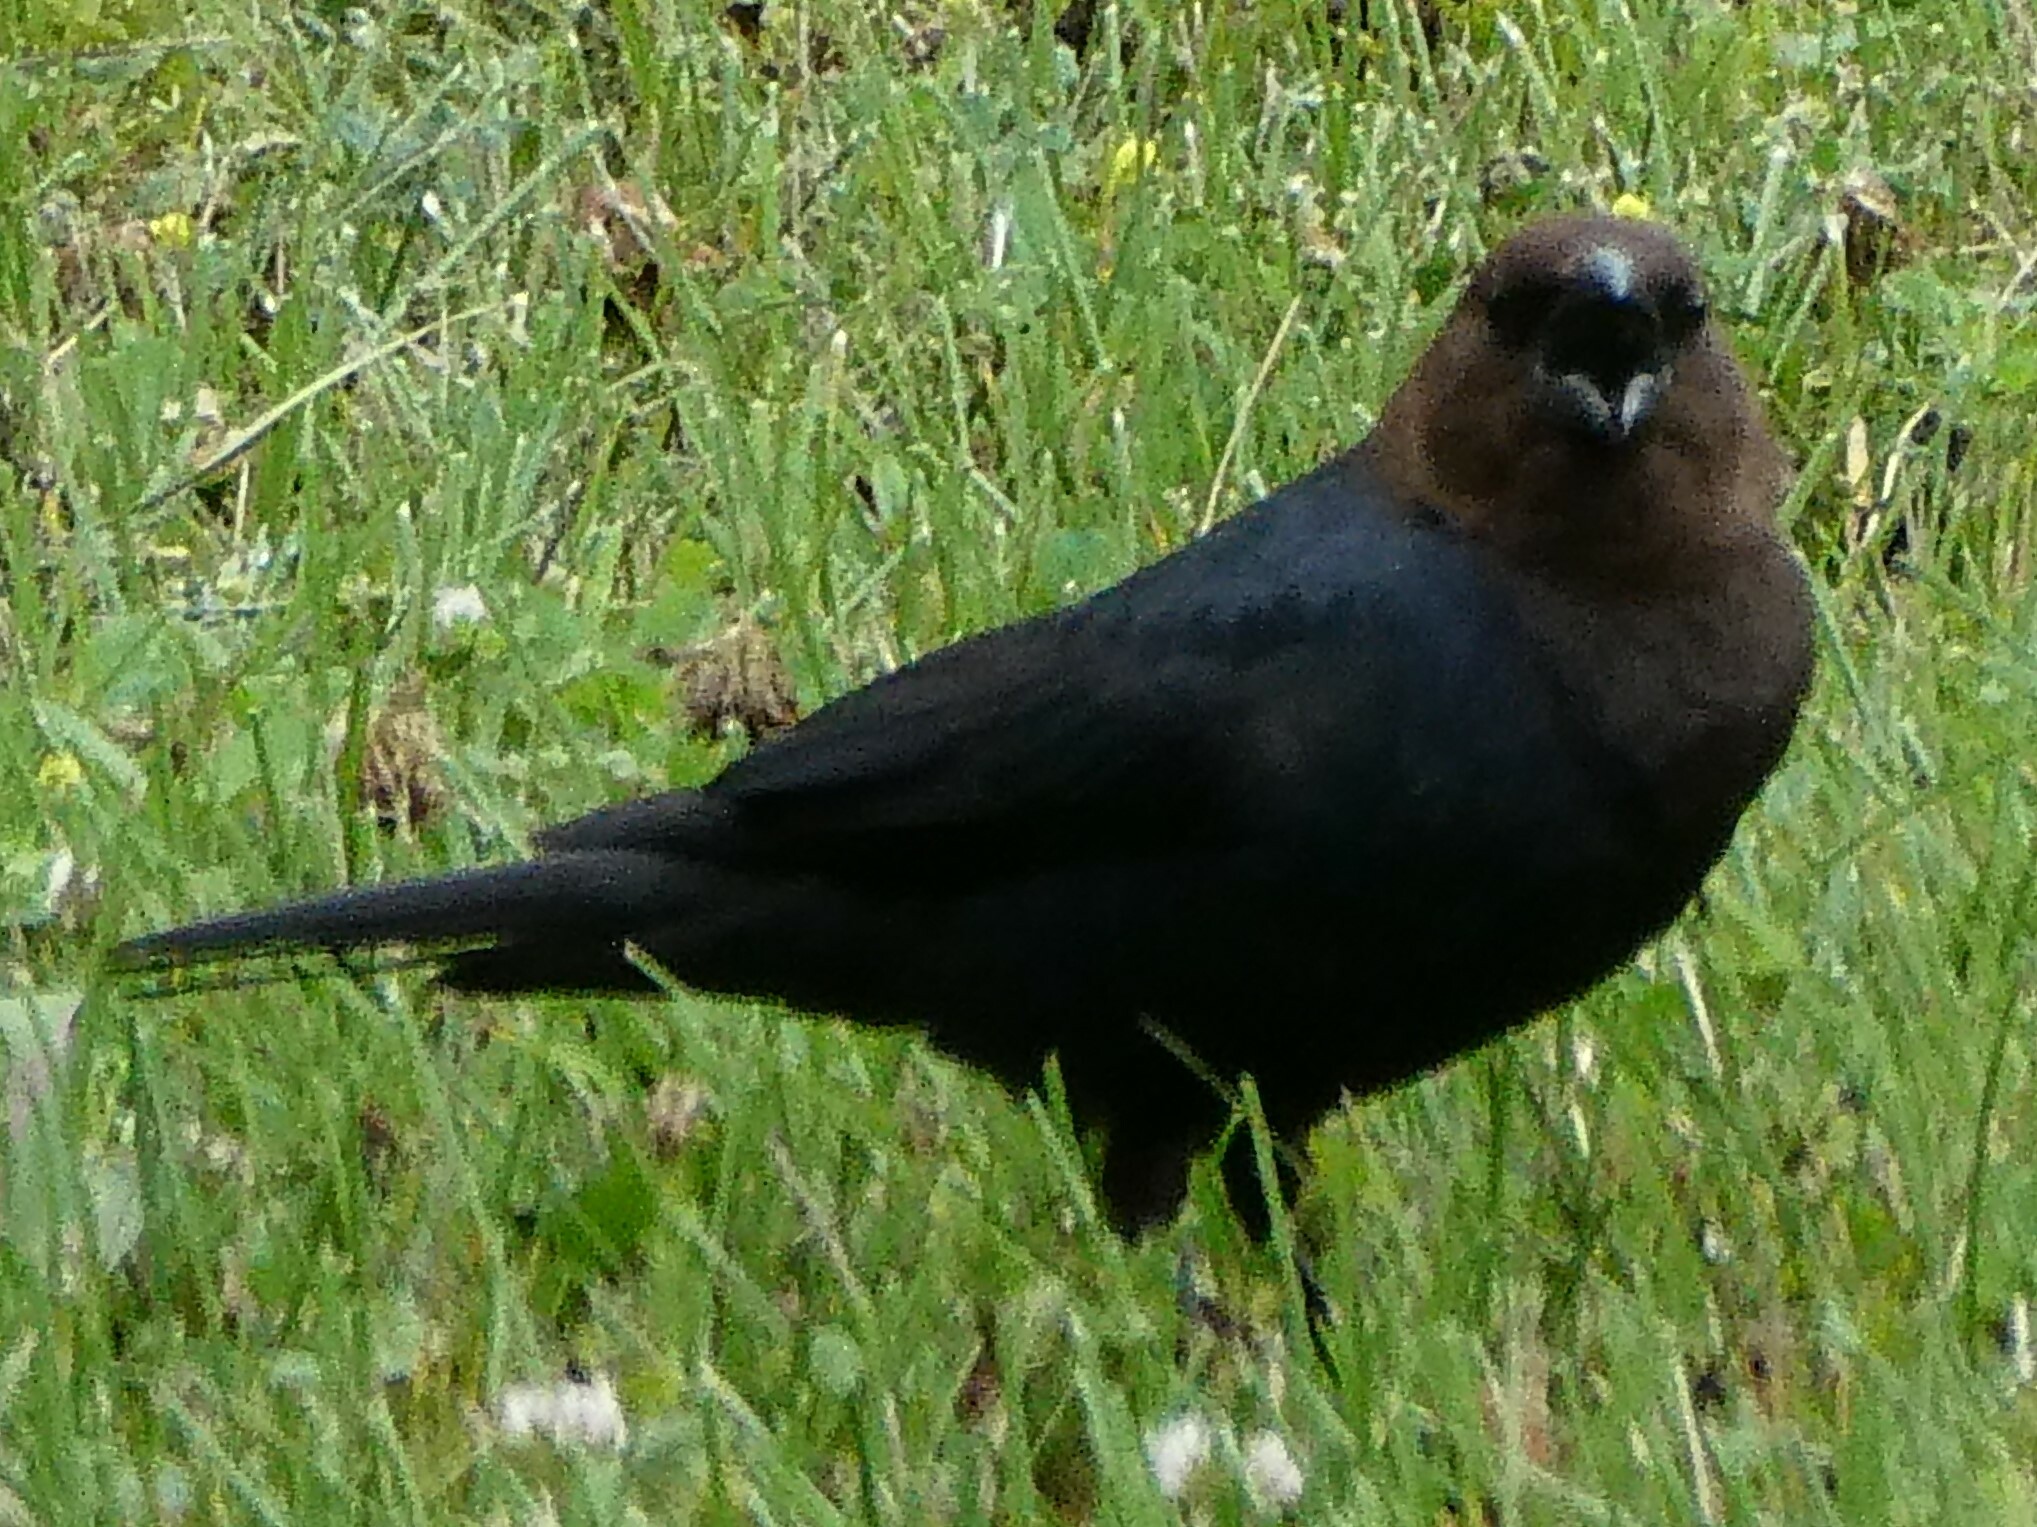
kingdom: Animalia
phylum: Chordata
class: Aves
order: Passeriformes
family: Icteridae
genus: Molothrus
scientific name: Molothrus ater
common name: Brown-headed cowbird
